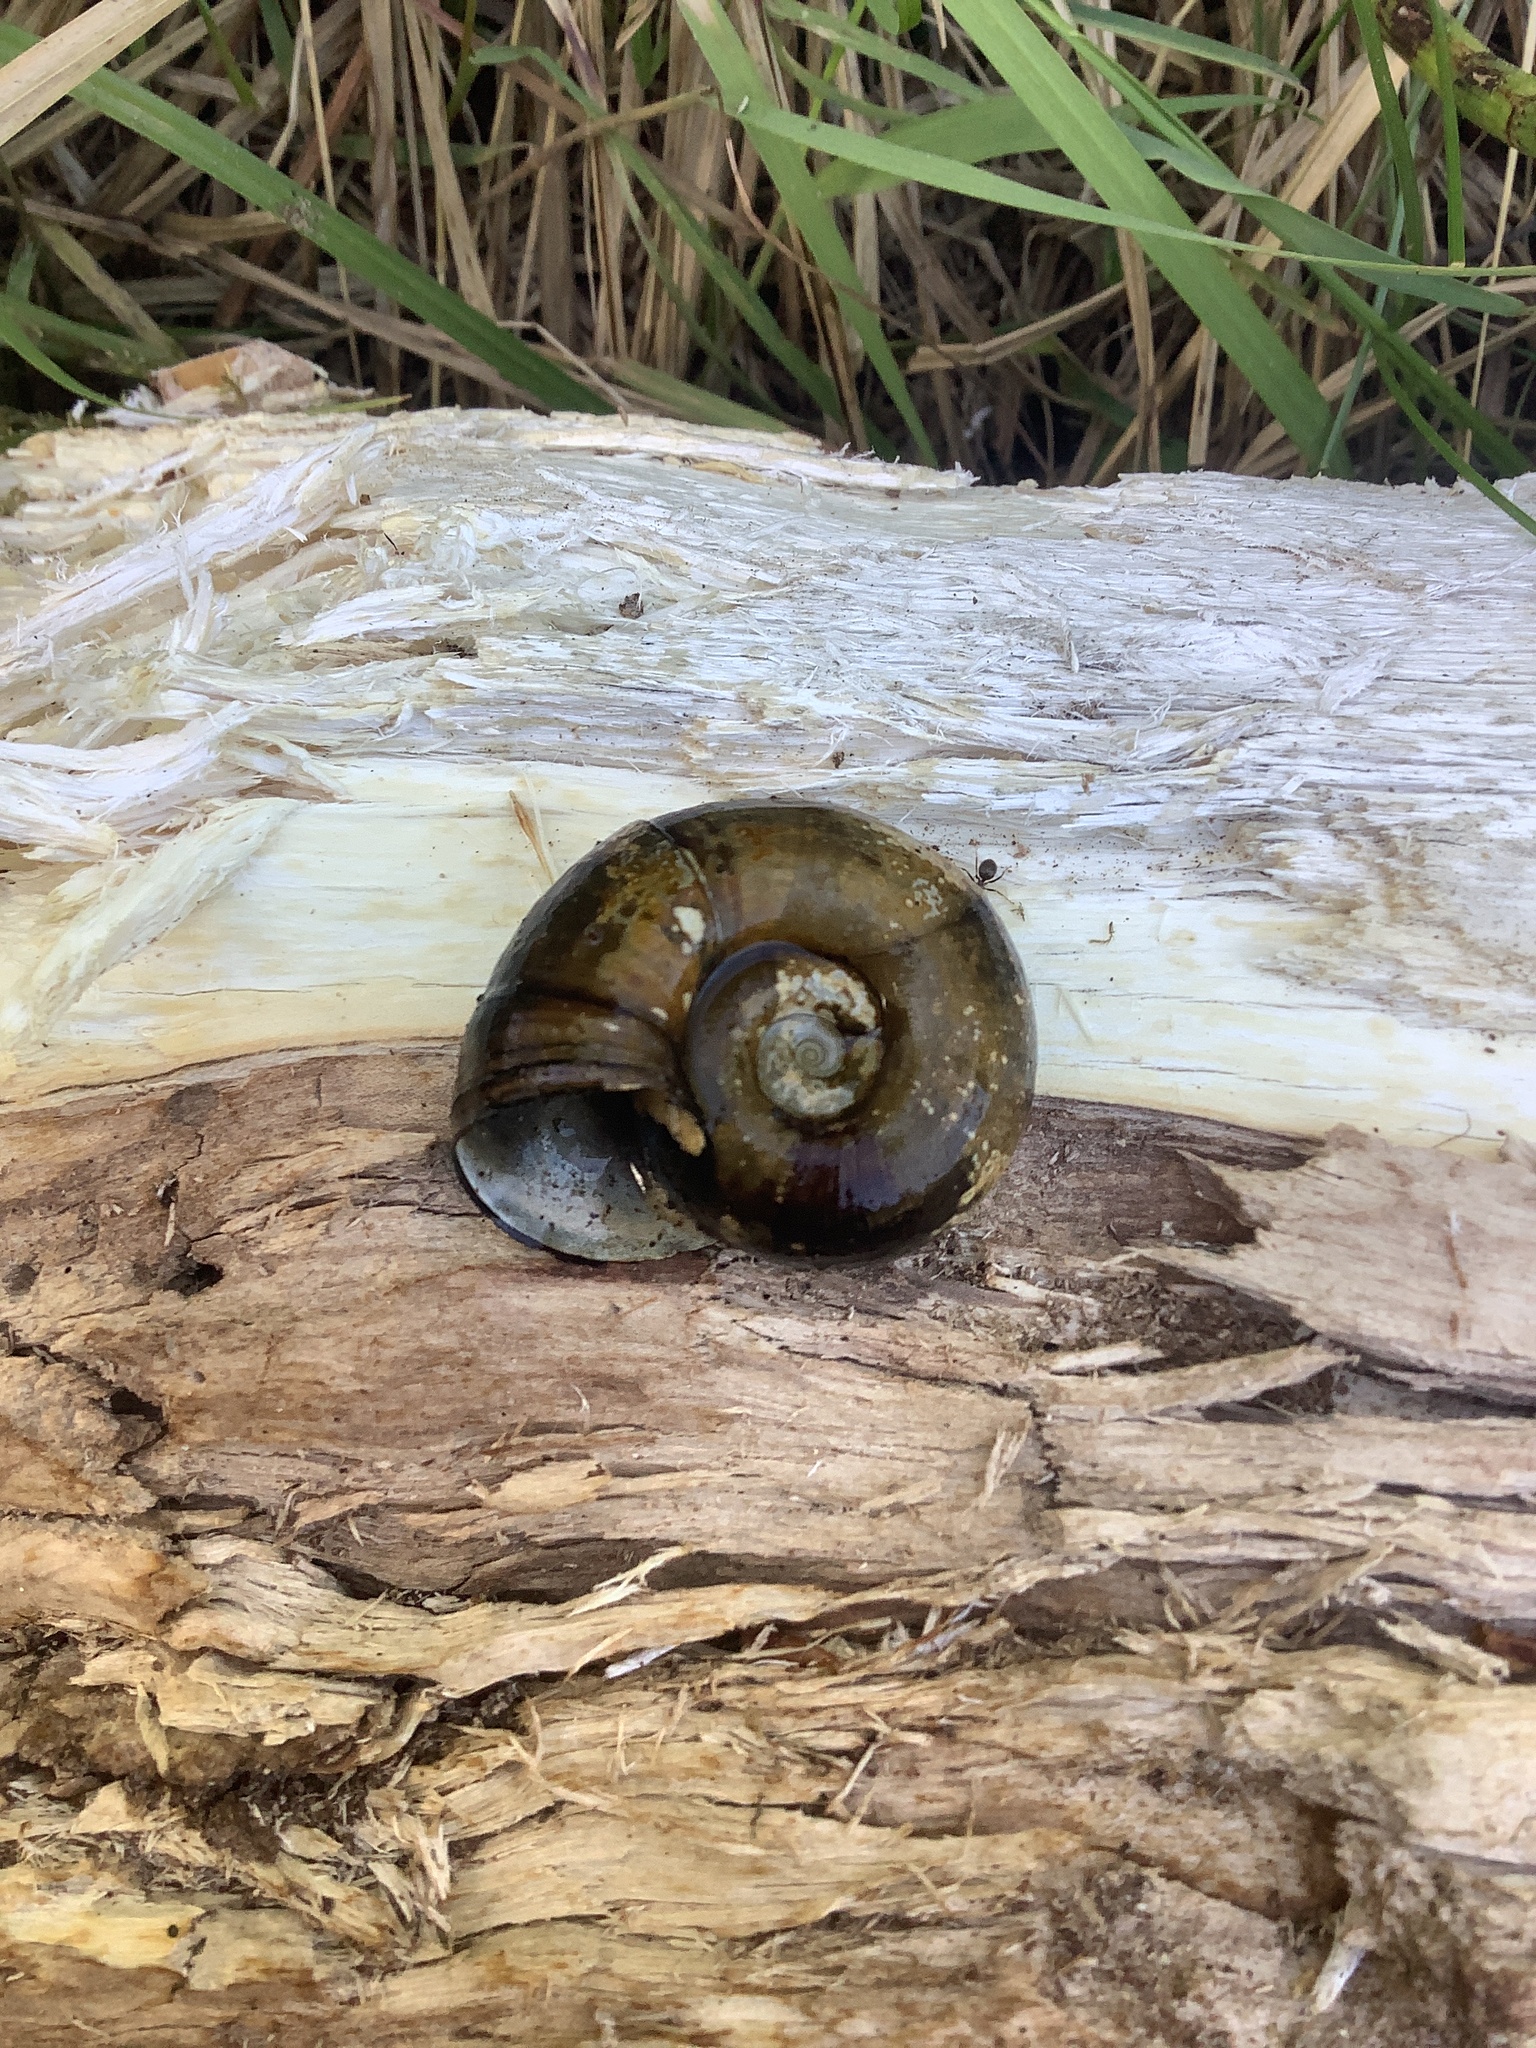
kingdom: Animalia
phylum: Mollusca
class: Gastropoda
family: Planorbidae
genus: Planorbarius
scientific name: Planorbarius corneus
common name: Great ramshorn
